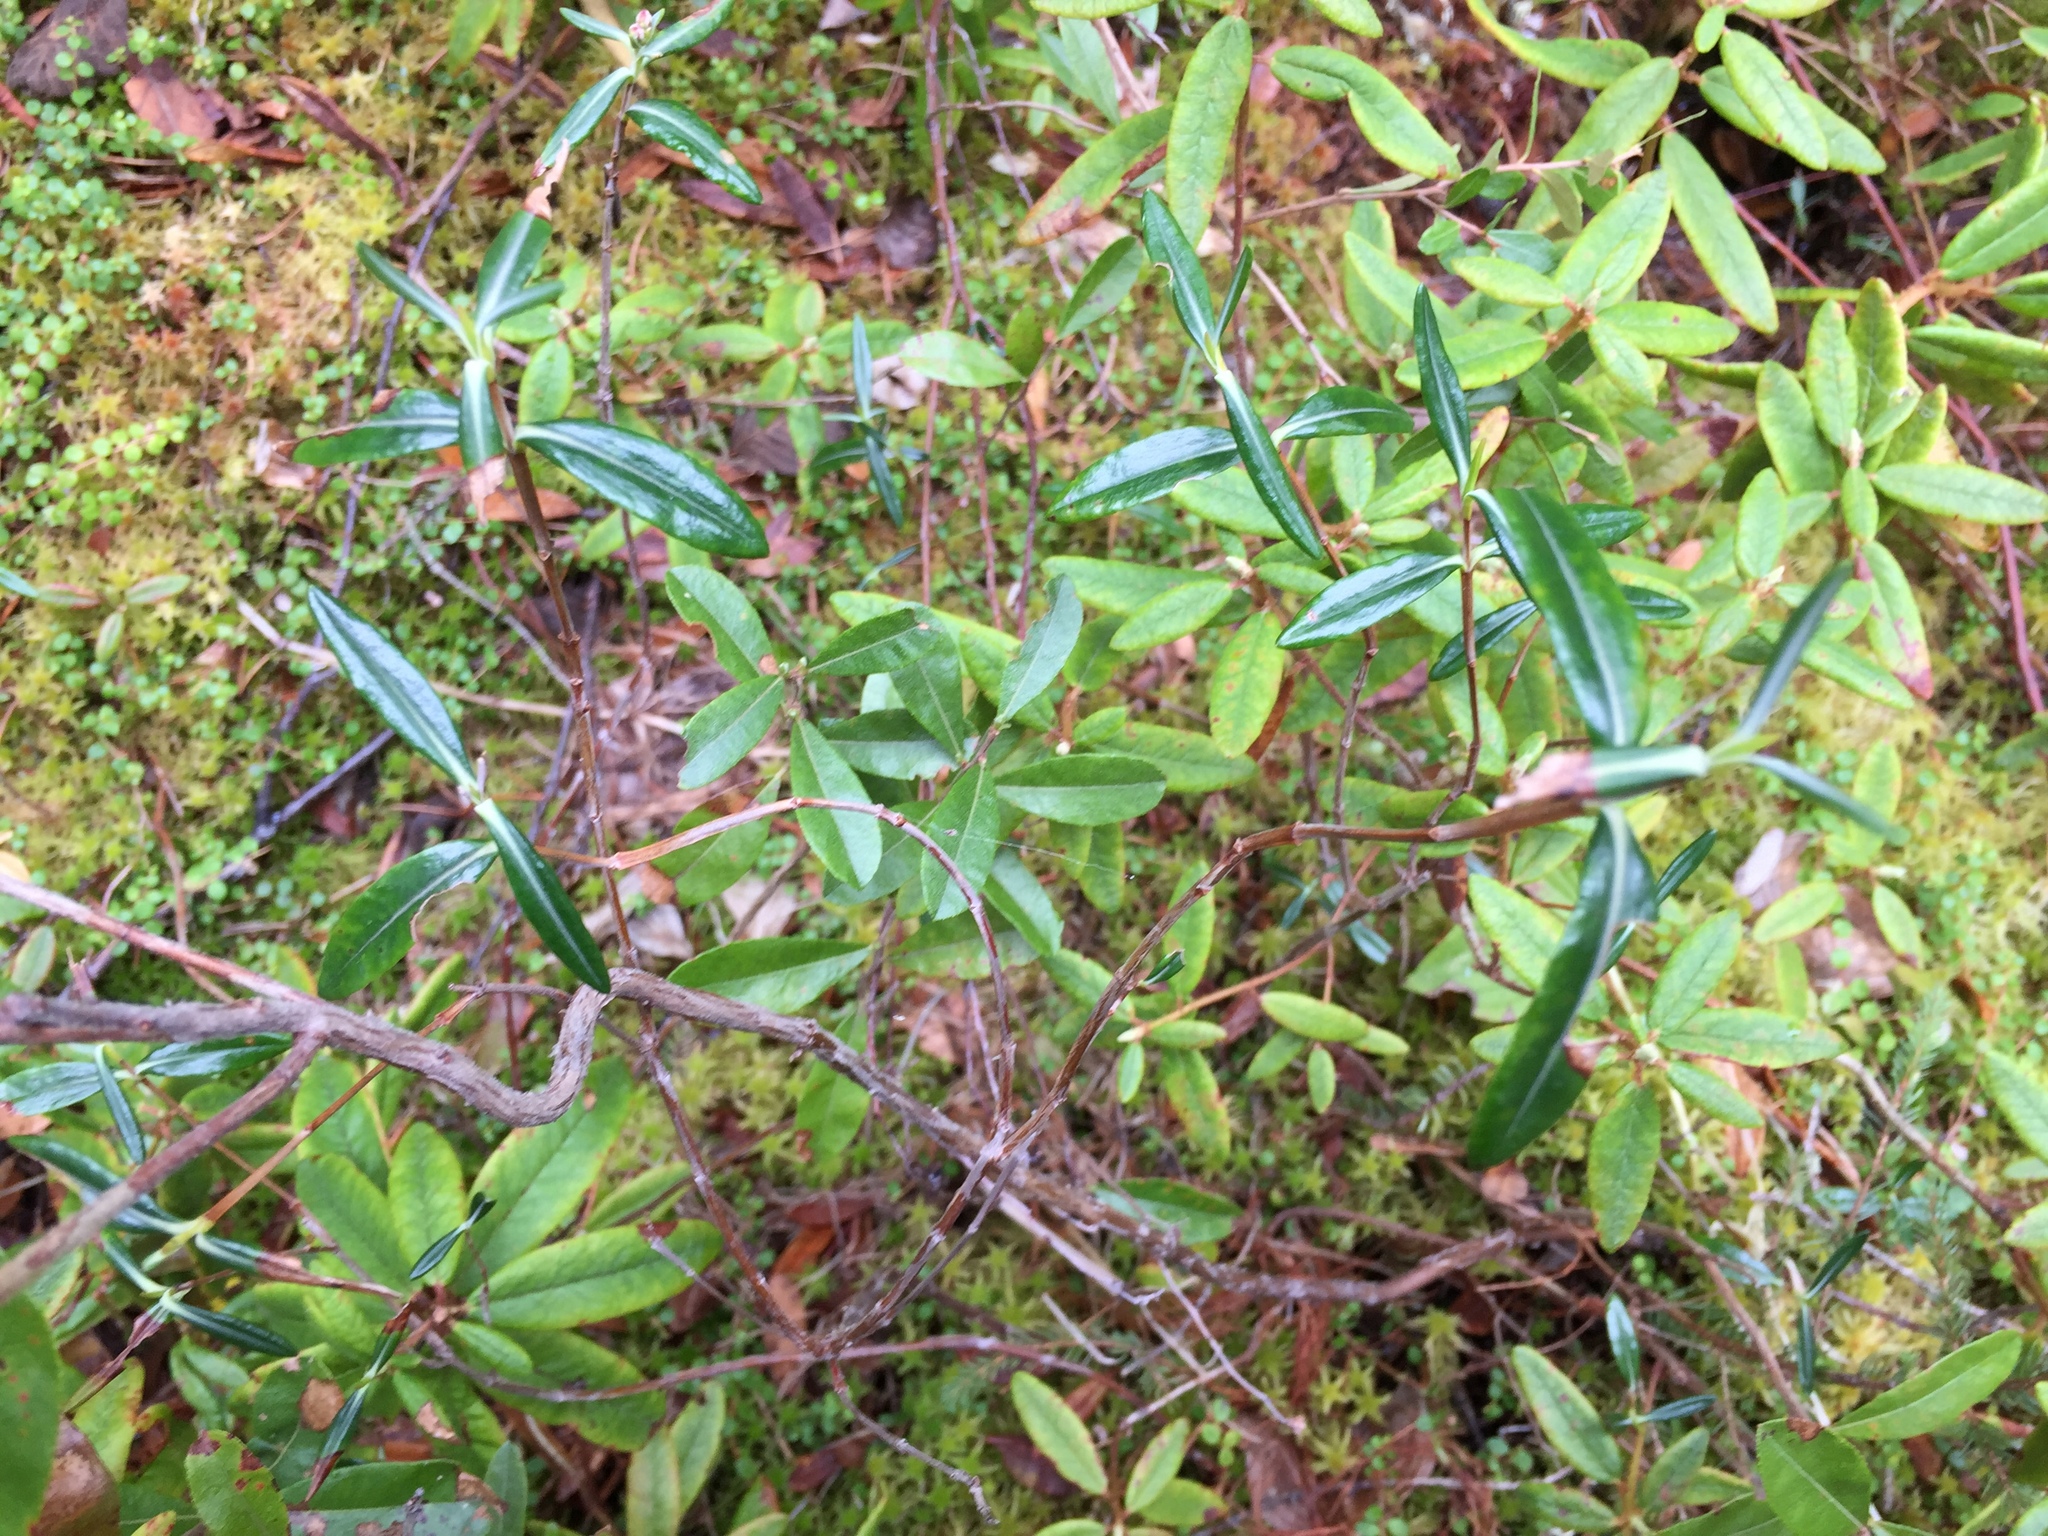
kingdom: Plantae
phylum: Tracheophyta
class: Magnoliopsida
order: Ericales
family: Ericaceae
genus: Kalmia
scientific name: Kalmia polifolia
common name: Bog-laurel
